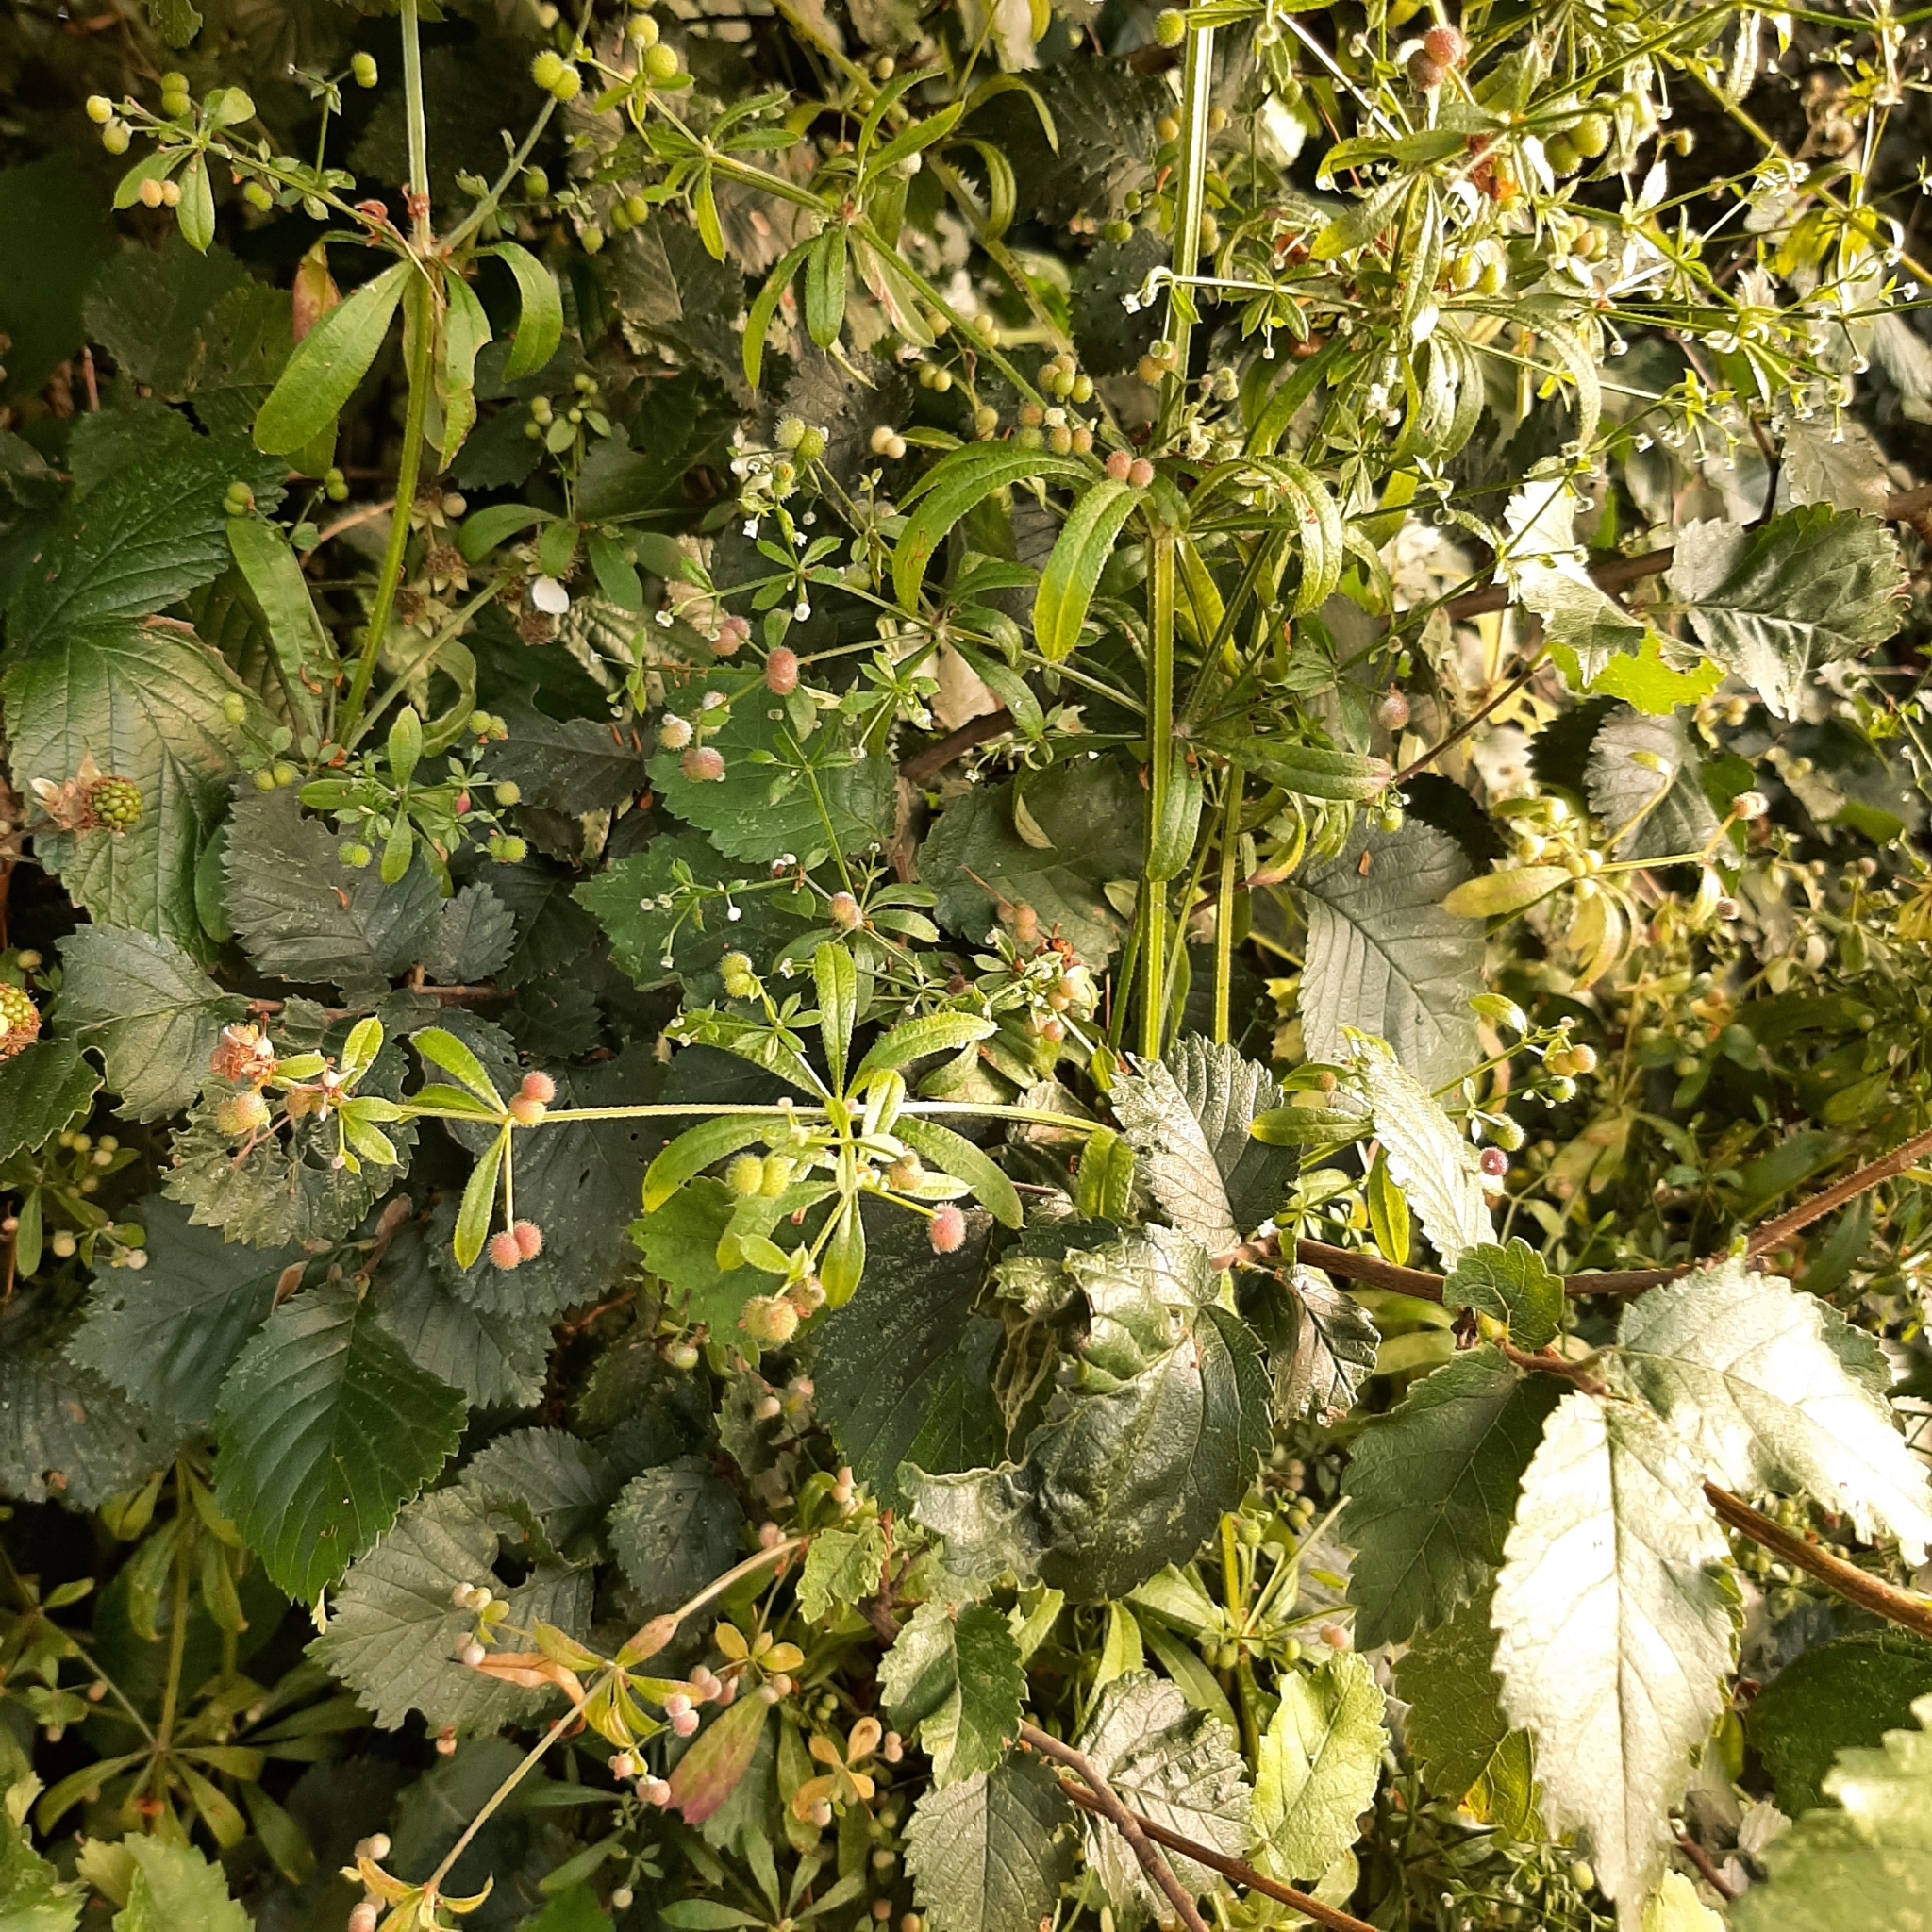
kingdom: Plantae
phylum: Tracheophyta
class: Magnoliopsida
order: Gentianales
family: Rubiaceae
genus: Galium
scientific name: Galium aparine
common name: Cleavers
